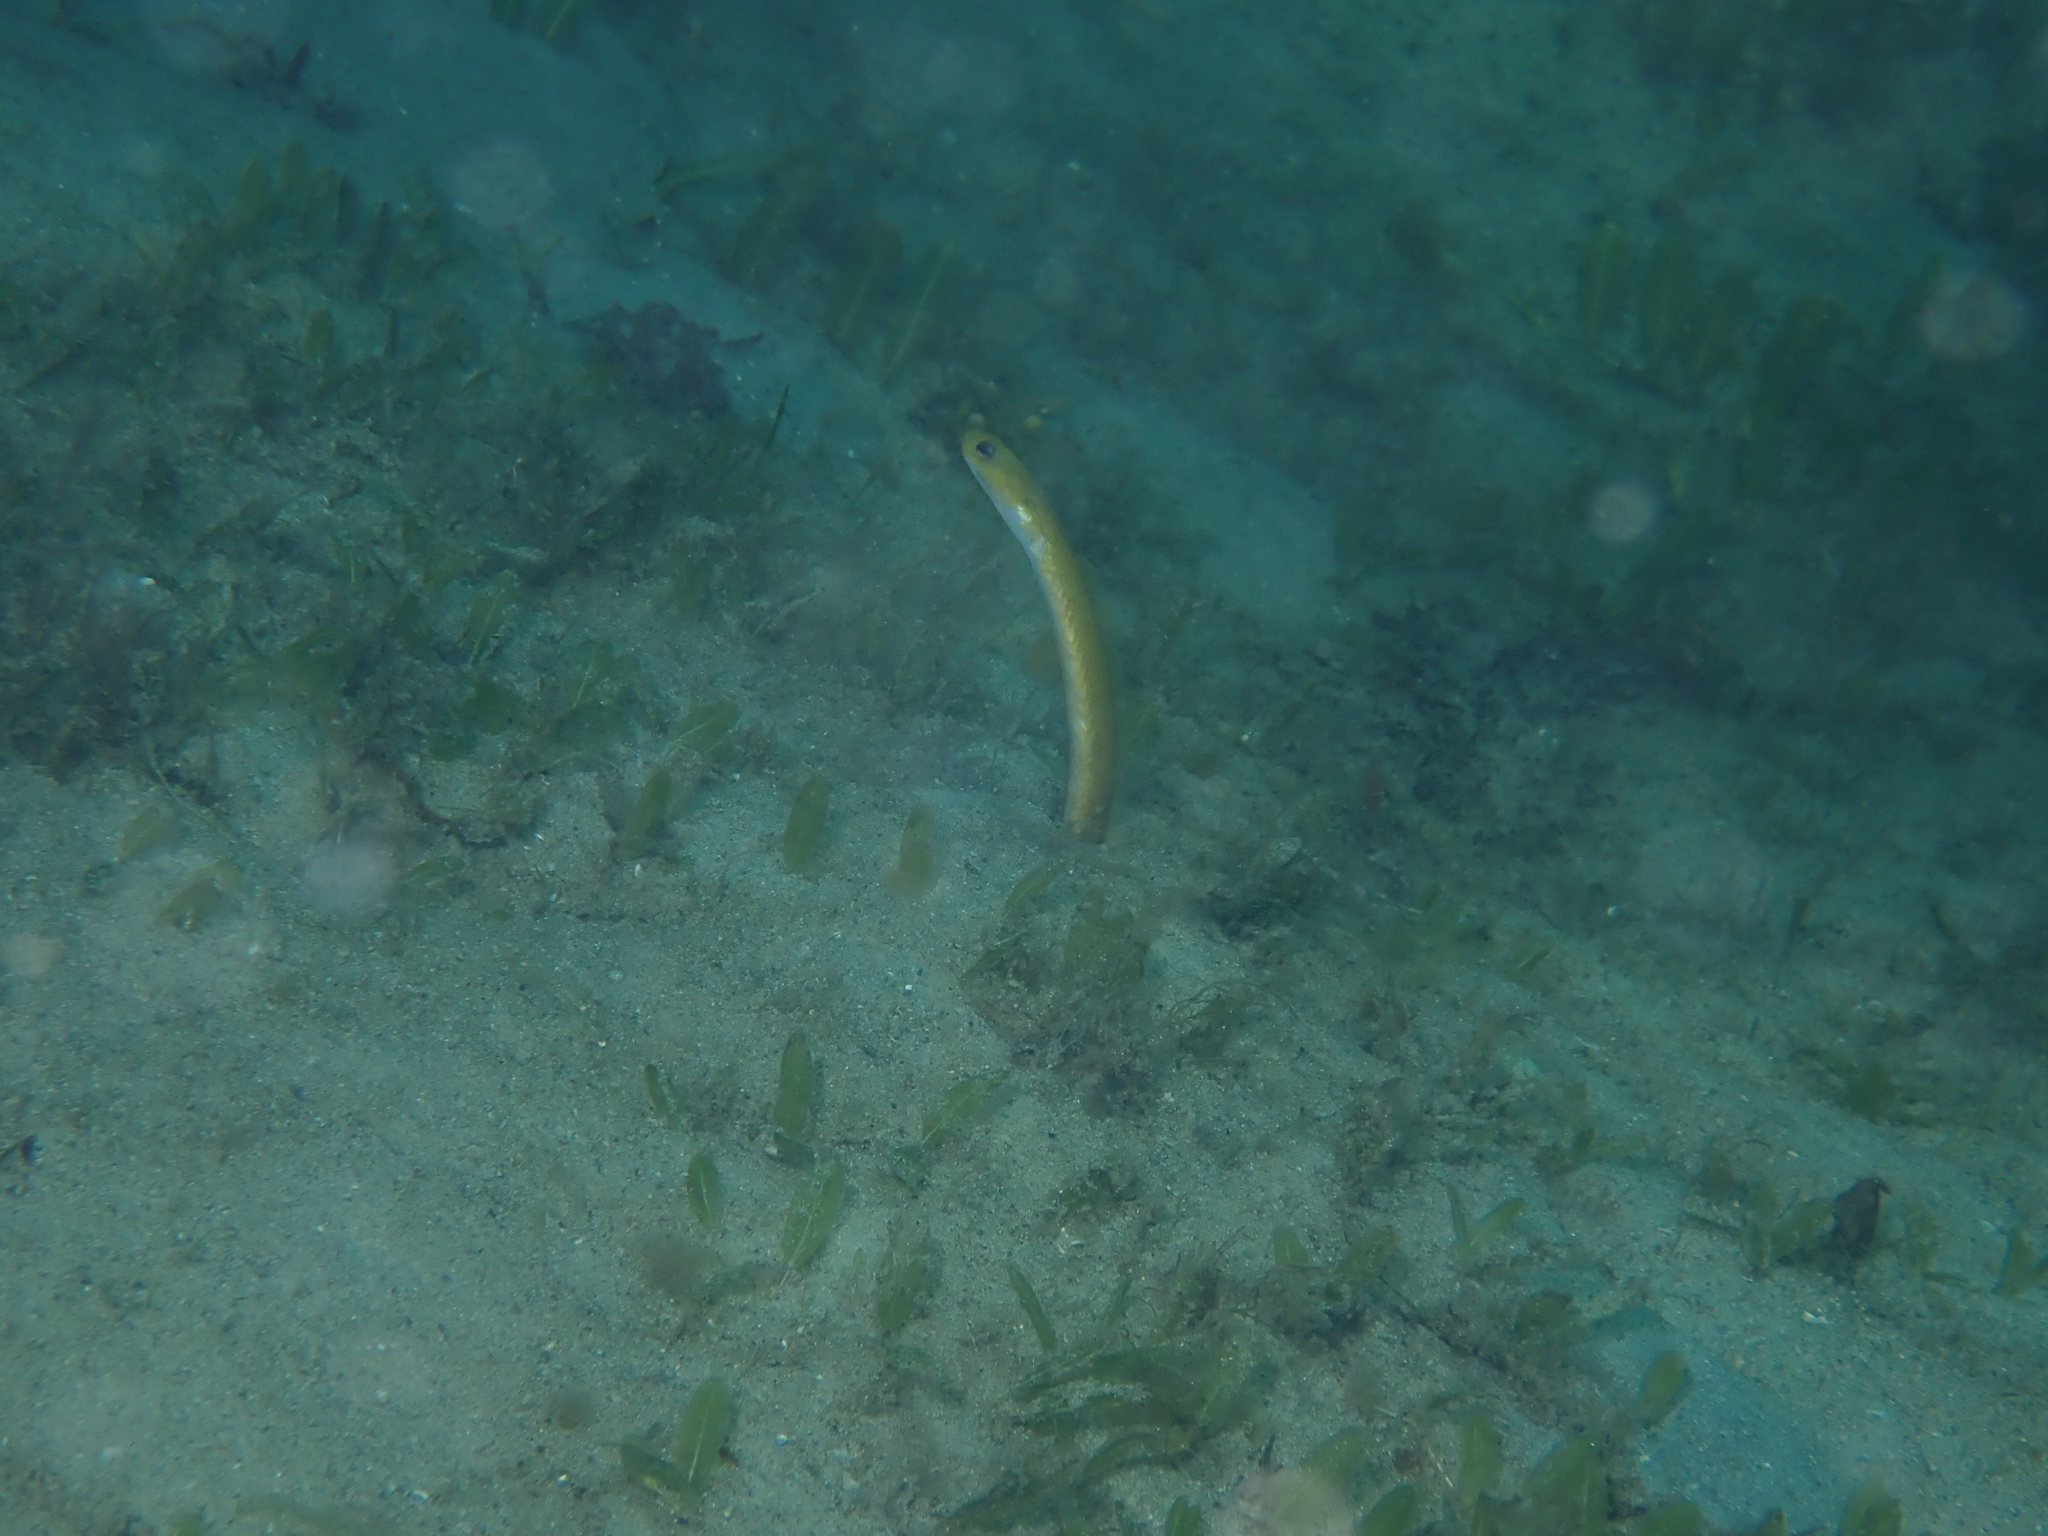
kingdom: Animalia
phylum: Chordata
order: Anguilliformes
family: Congridae
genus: Heteroconger
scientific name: Heteroconger luteolus
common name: Yellow garden eel
